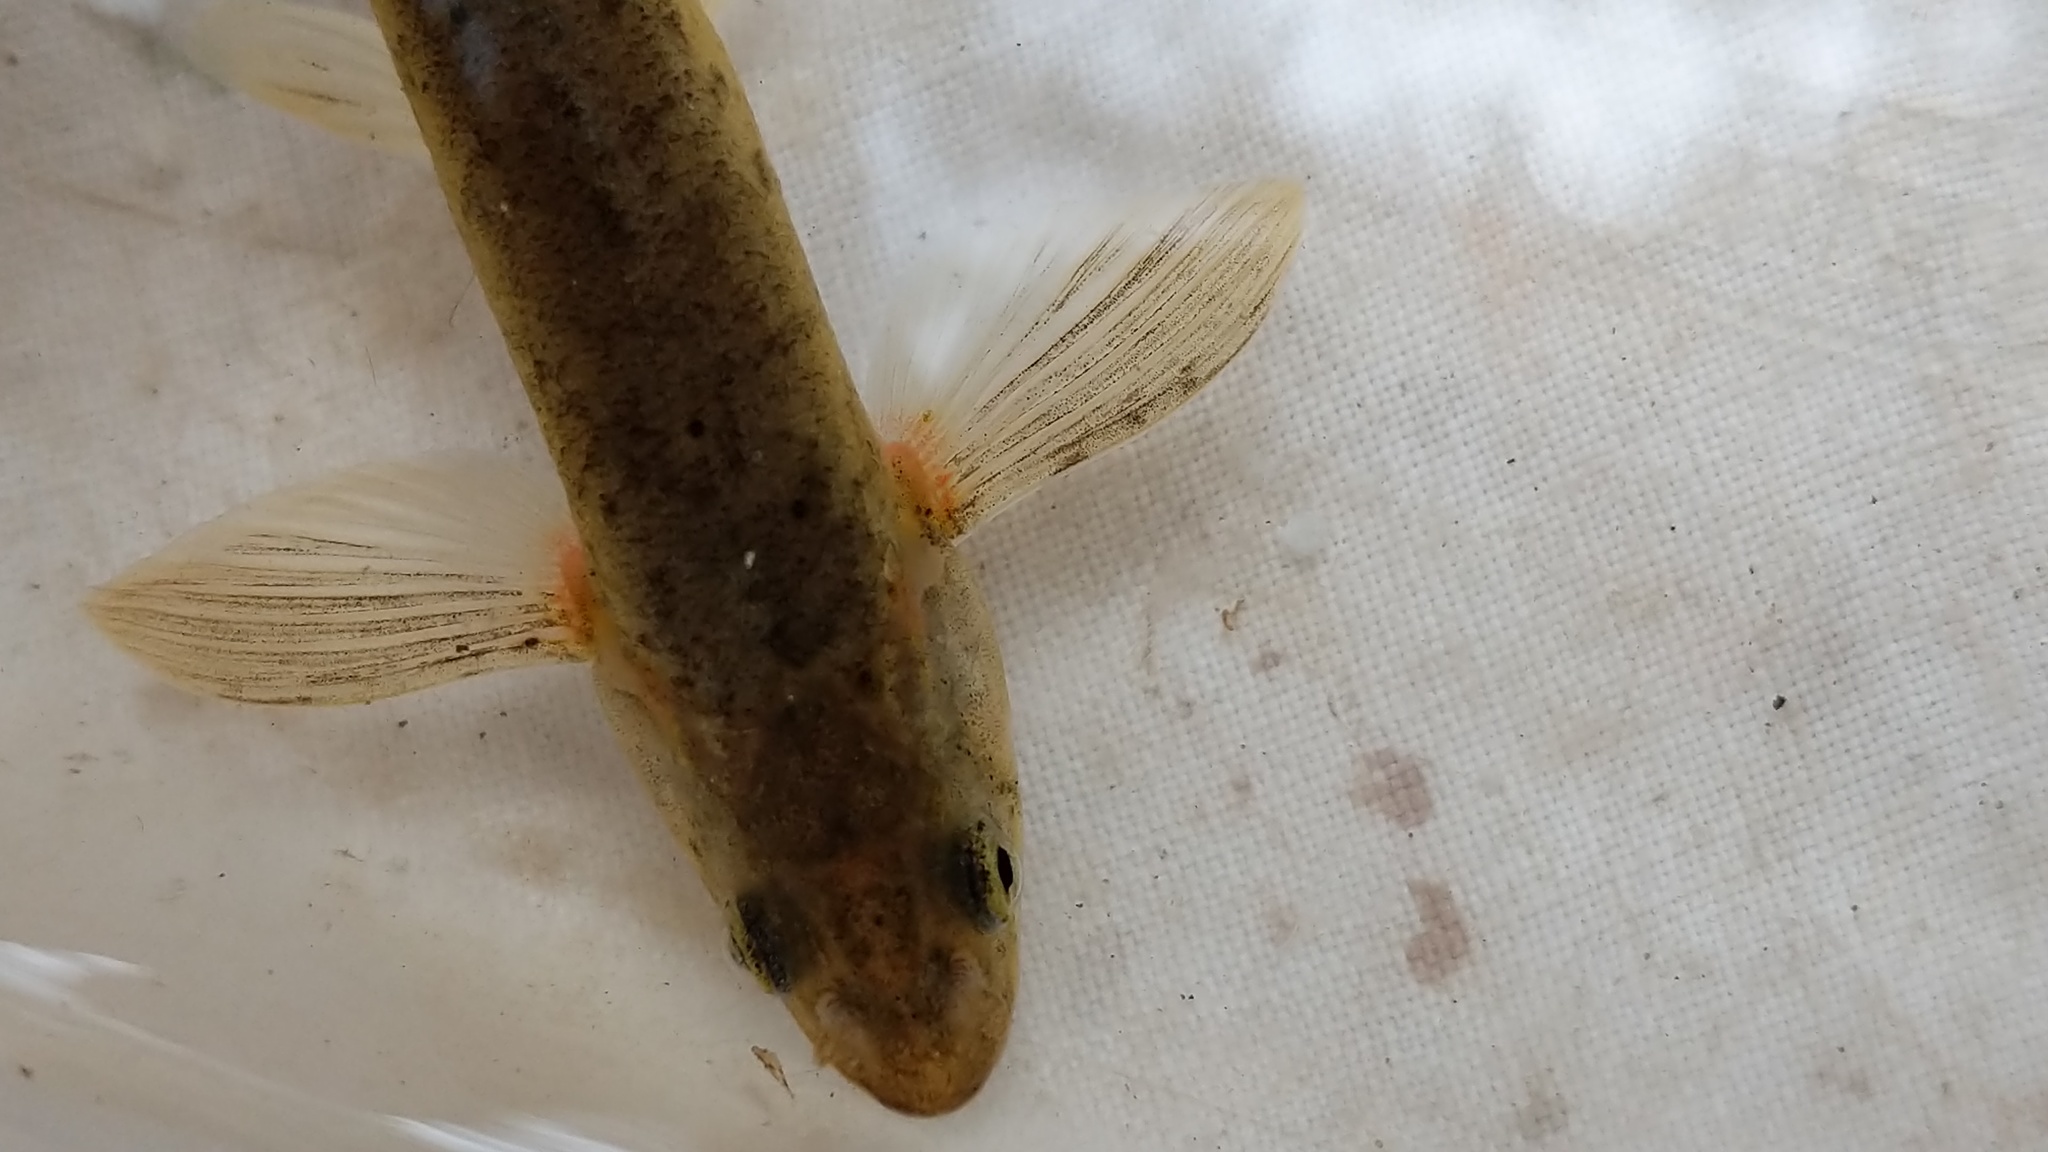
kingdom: Animalia
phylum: Chordata
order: Cypriniformes
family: Cyprinidae
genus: Rhinichthys
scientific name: Rhinichthys klamathensis
